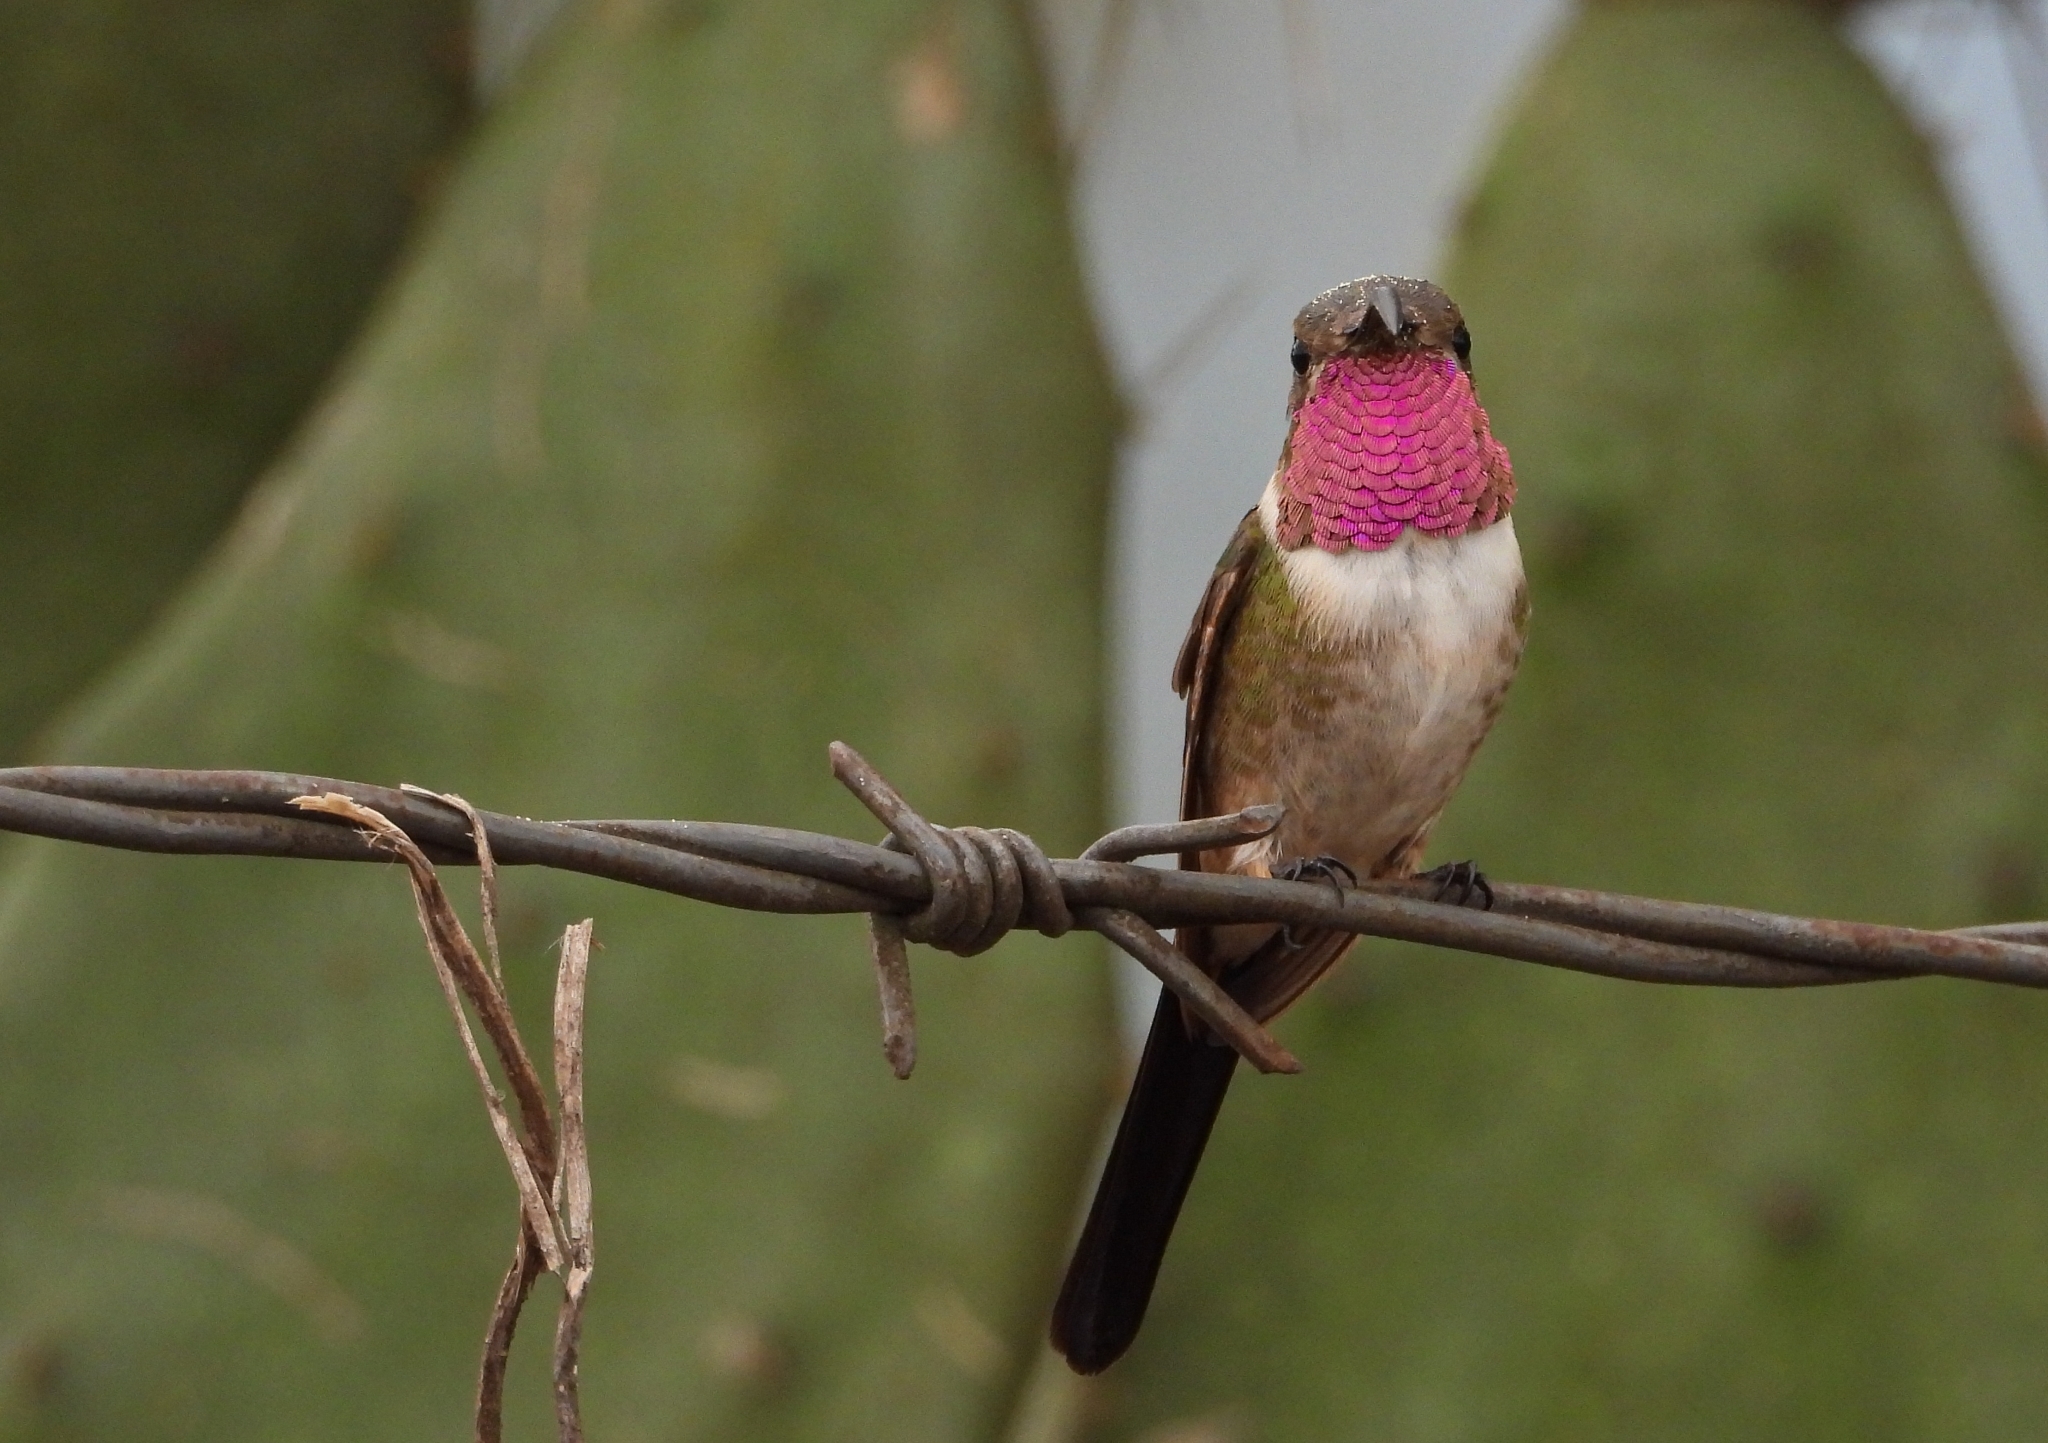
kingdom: Animalia
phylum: Chordata
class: Aves
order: Apodiformes
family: Trochilidae
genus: Doricha
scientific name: Doricha eliza
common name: Mexican sheartail
